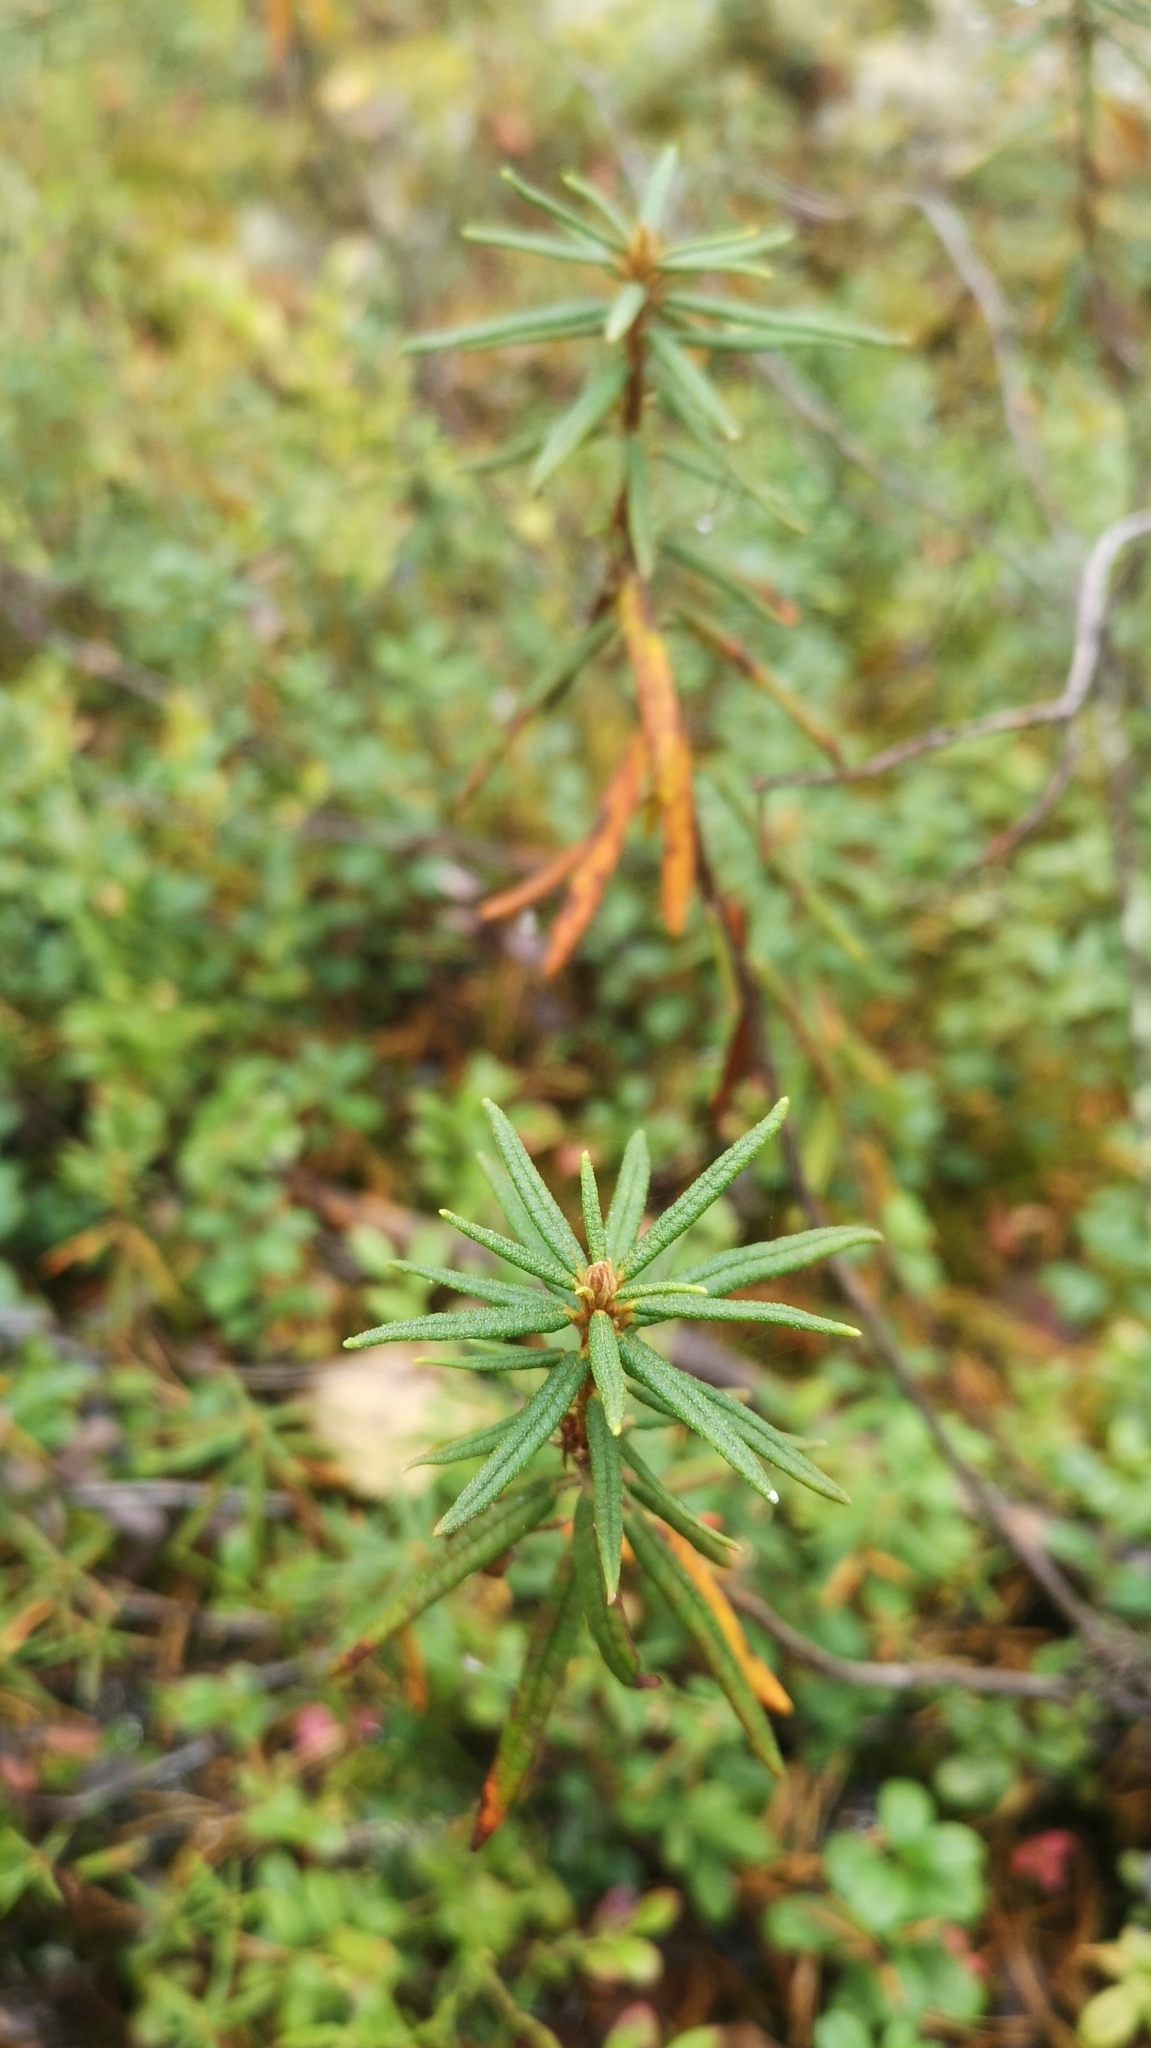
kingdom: Plantae
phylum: Tracheophyta
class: Magnoliopsida
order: Ericales
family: Ericaceae
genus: Rhododendron
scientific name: Rhododendron tomentosum
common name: Marsh labrador tea
